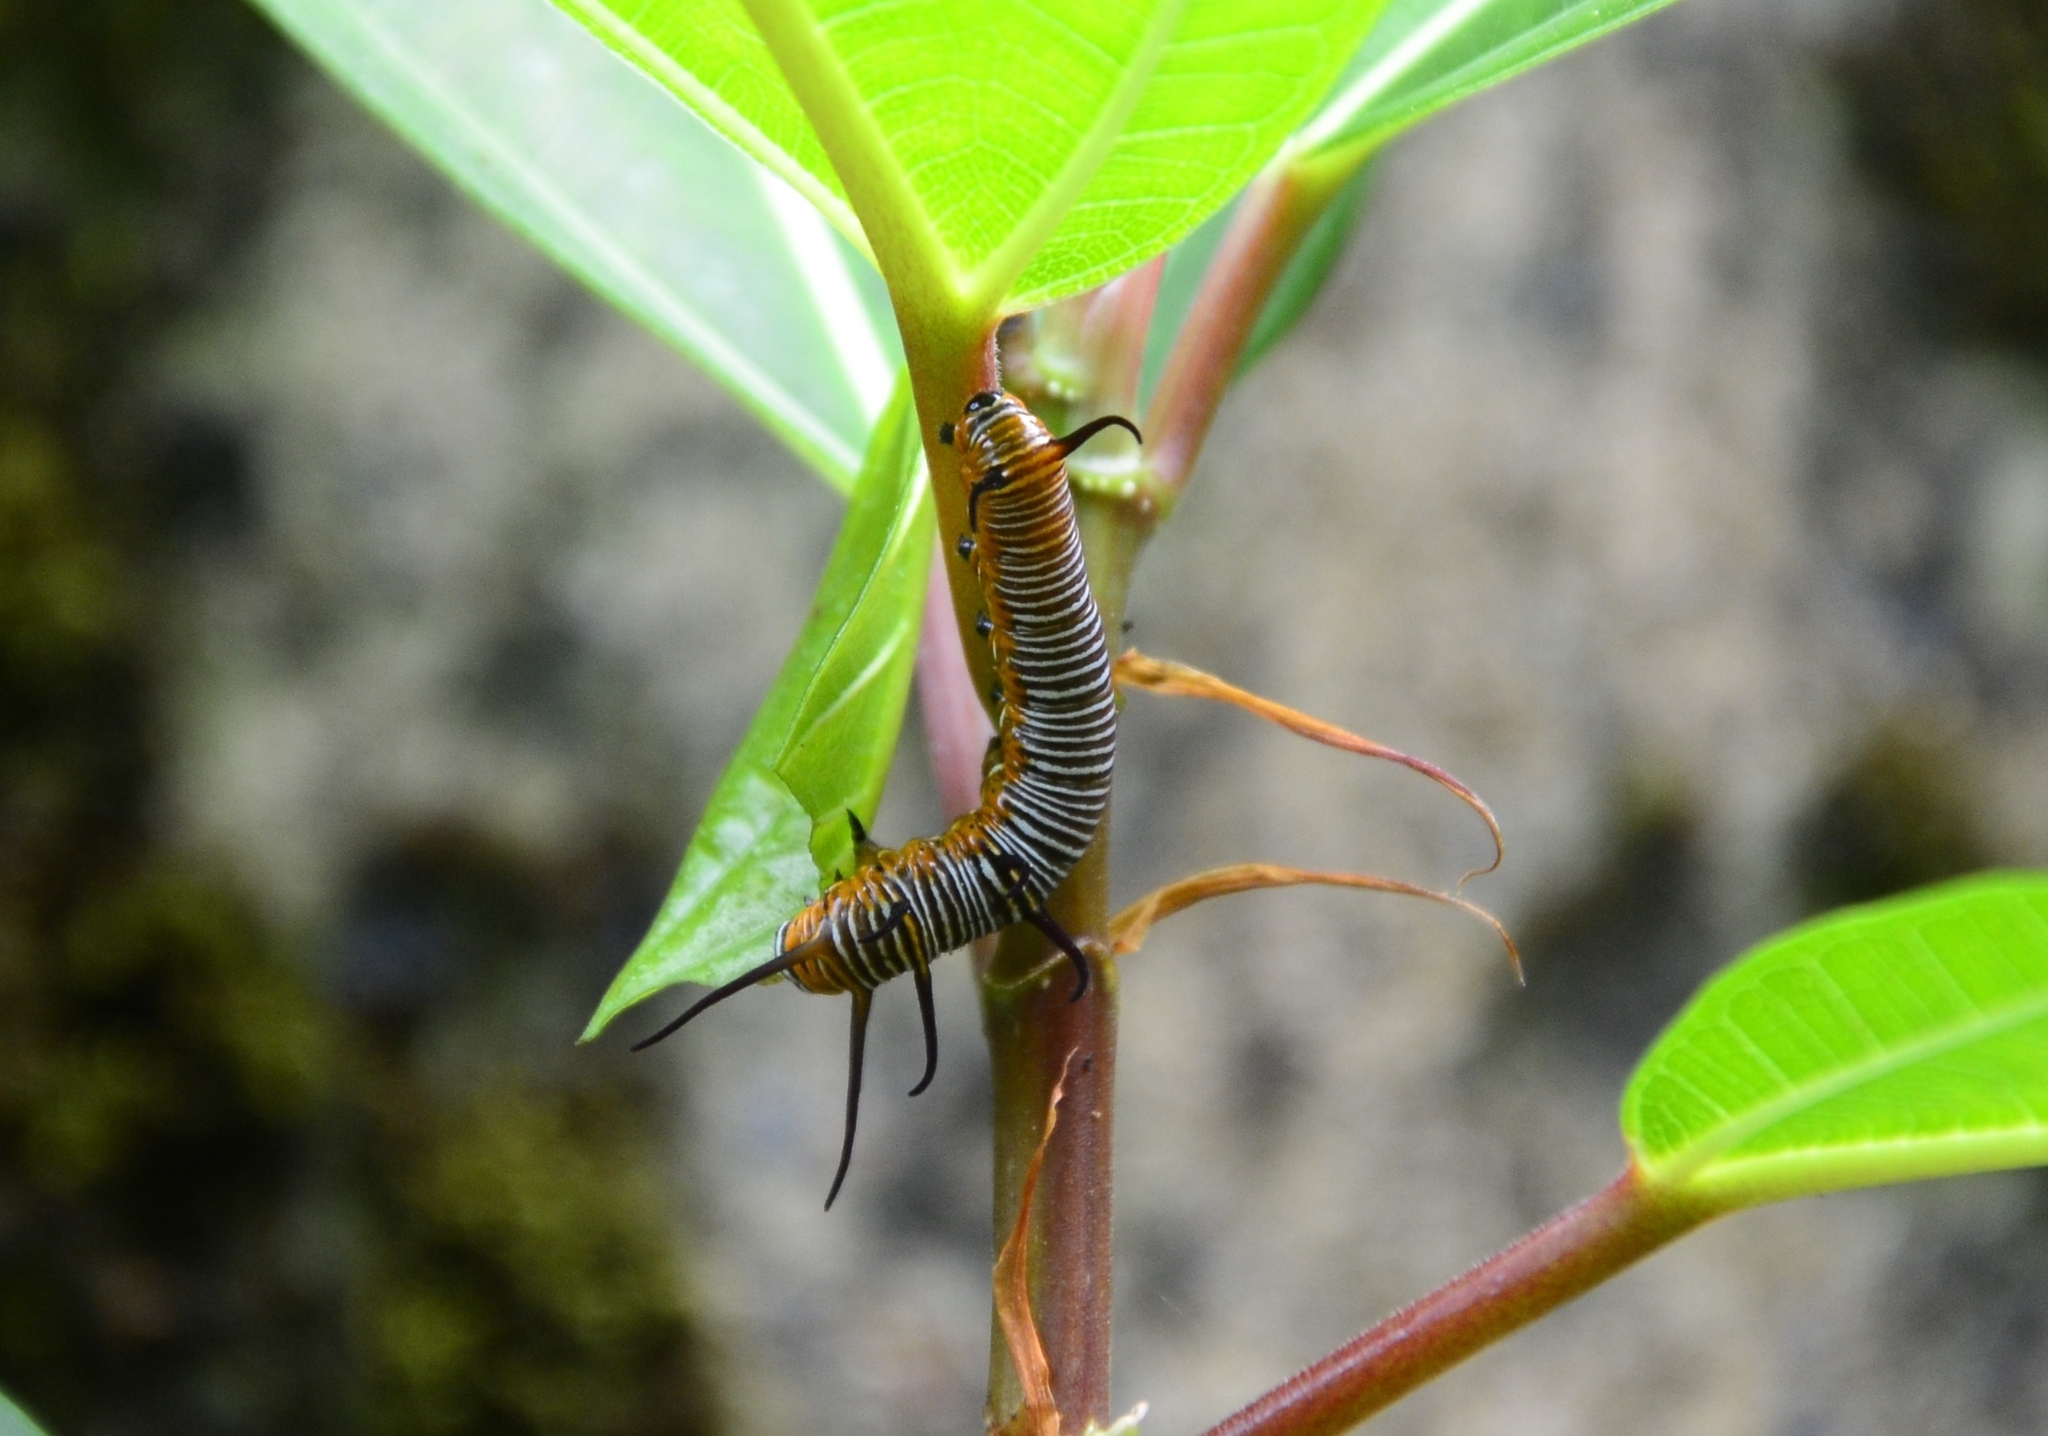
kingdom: Animalia
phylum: Arthropoda
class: Insecta
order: Lepidoptera
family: Nymphalidae
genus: Euploea
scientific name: Euploea core
